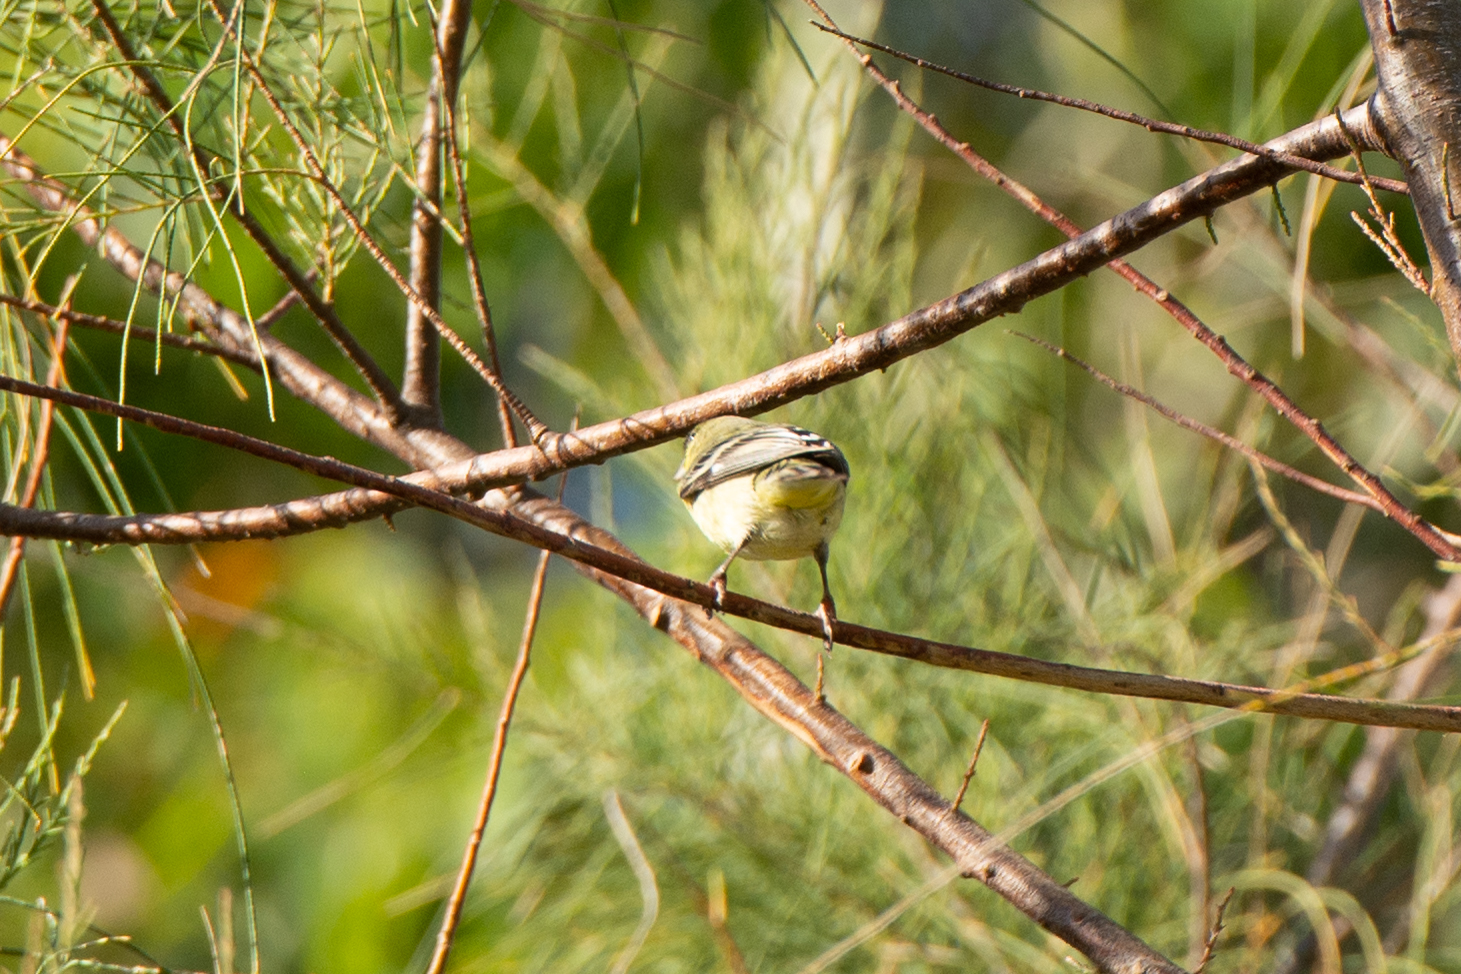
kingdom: Animalia
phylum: Chordata
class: Aves
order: Passeriformes
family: Fringillidae
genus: Spinus
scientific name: Spinus psaltria
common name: Lesser goldfinch
